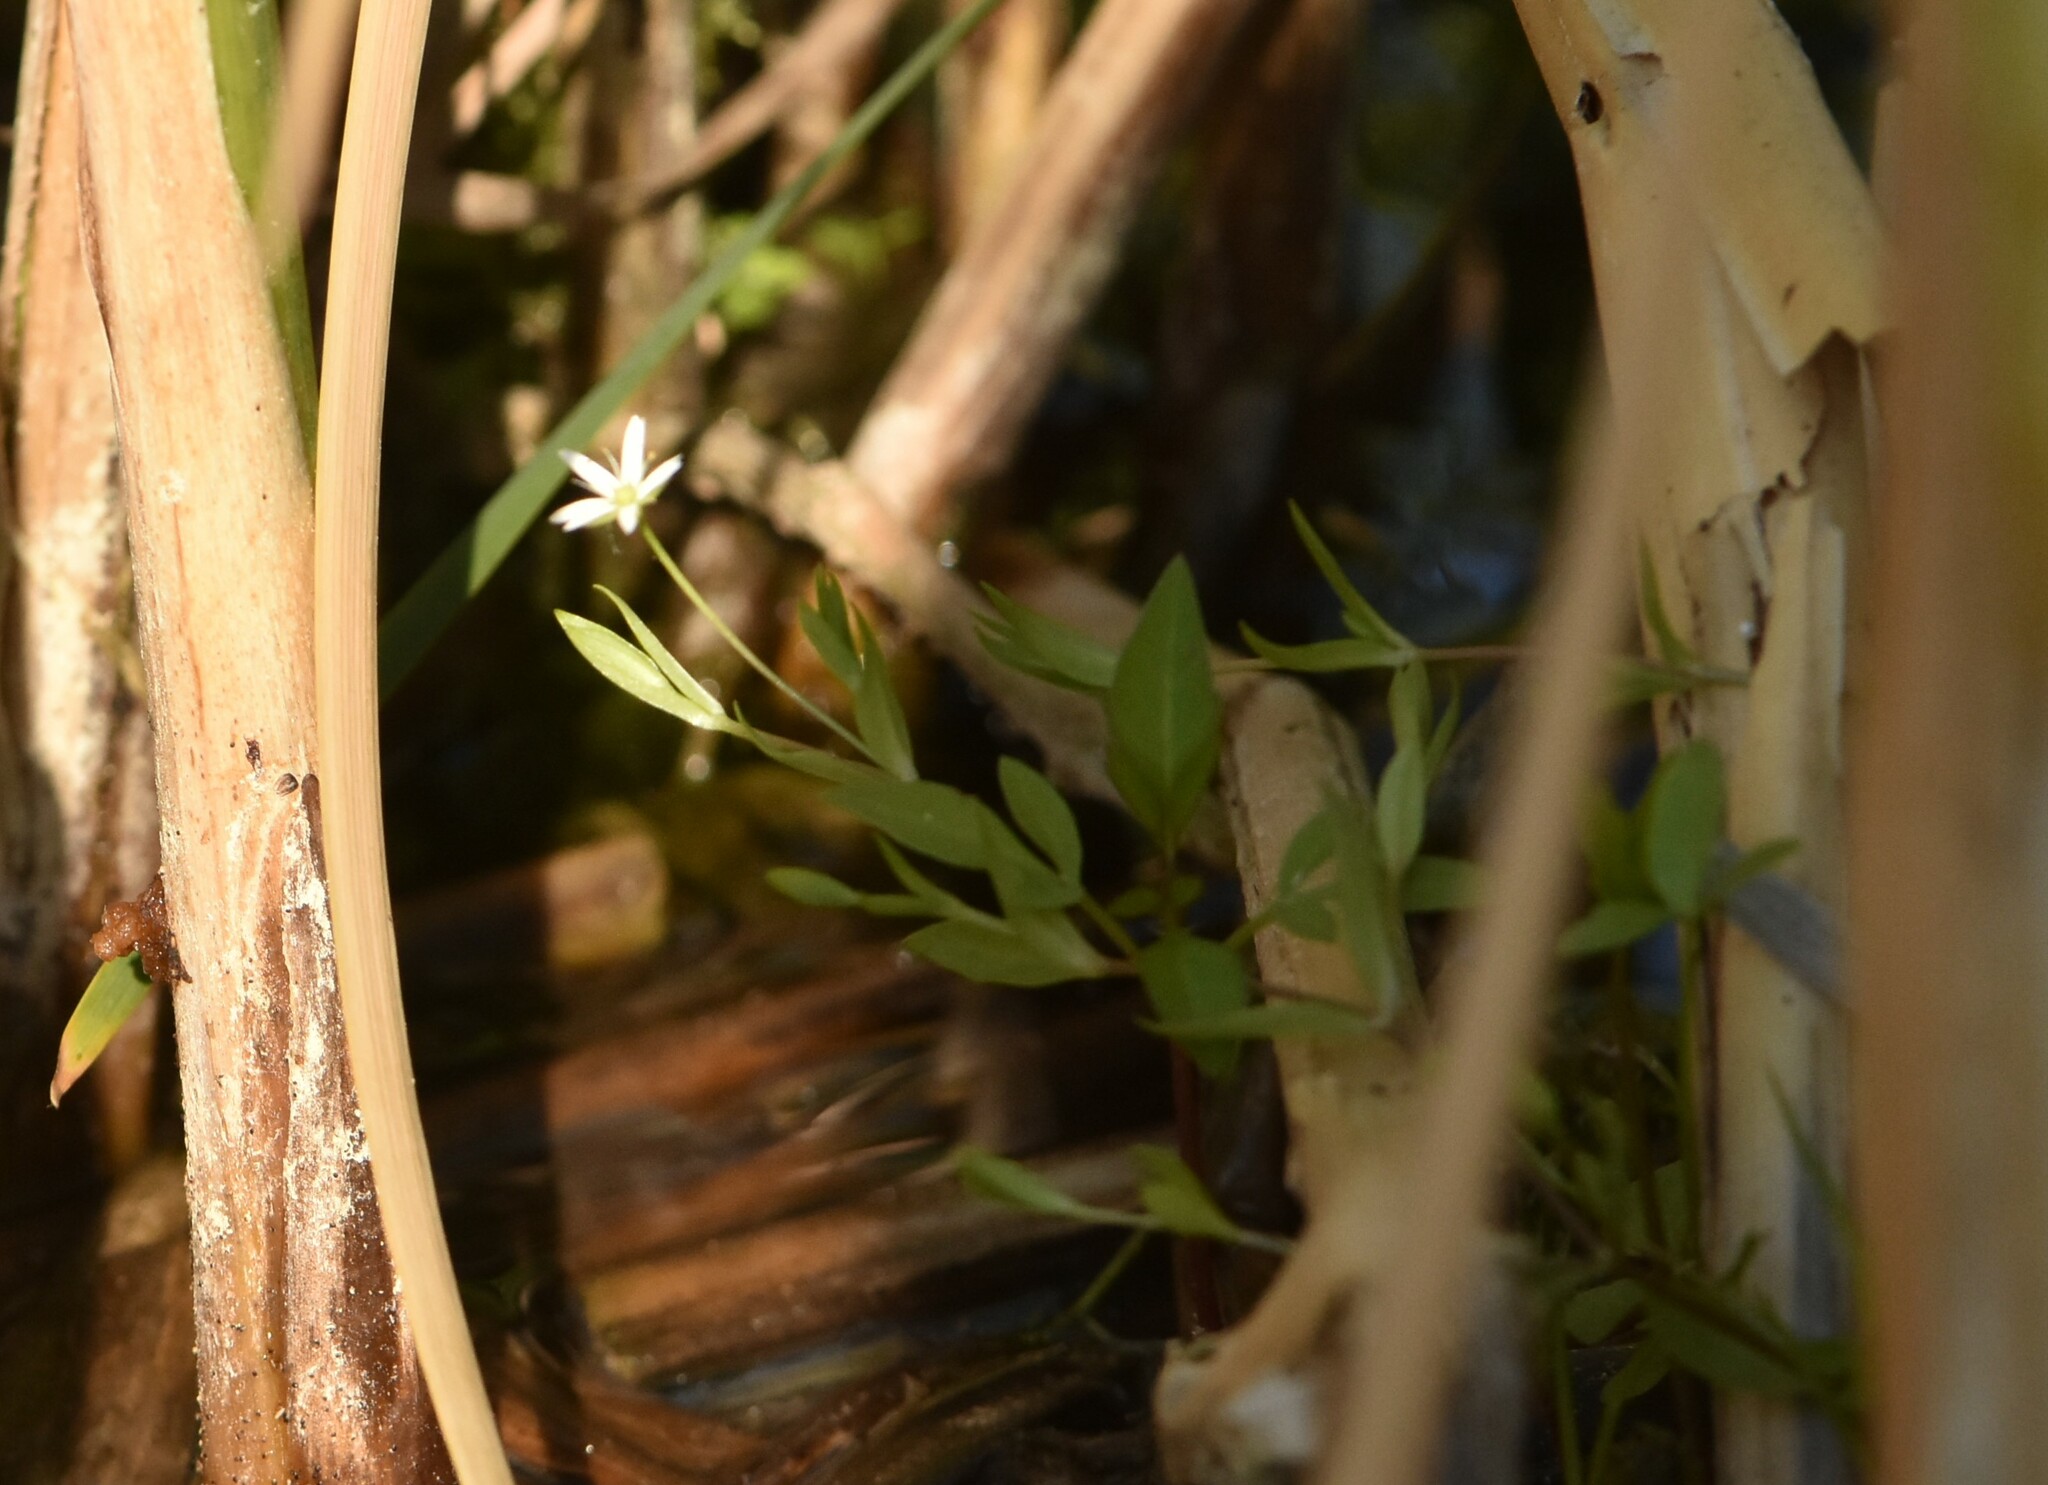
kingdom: Plantae
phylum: Tracheophyta
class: Magnoliopsida
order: Caryophyllales
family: Caryophyllaceae
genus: Stellaria
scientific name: Stellaria crassifolia
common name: Fleshy starwort
